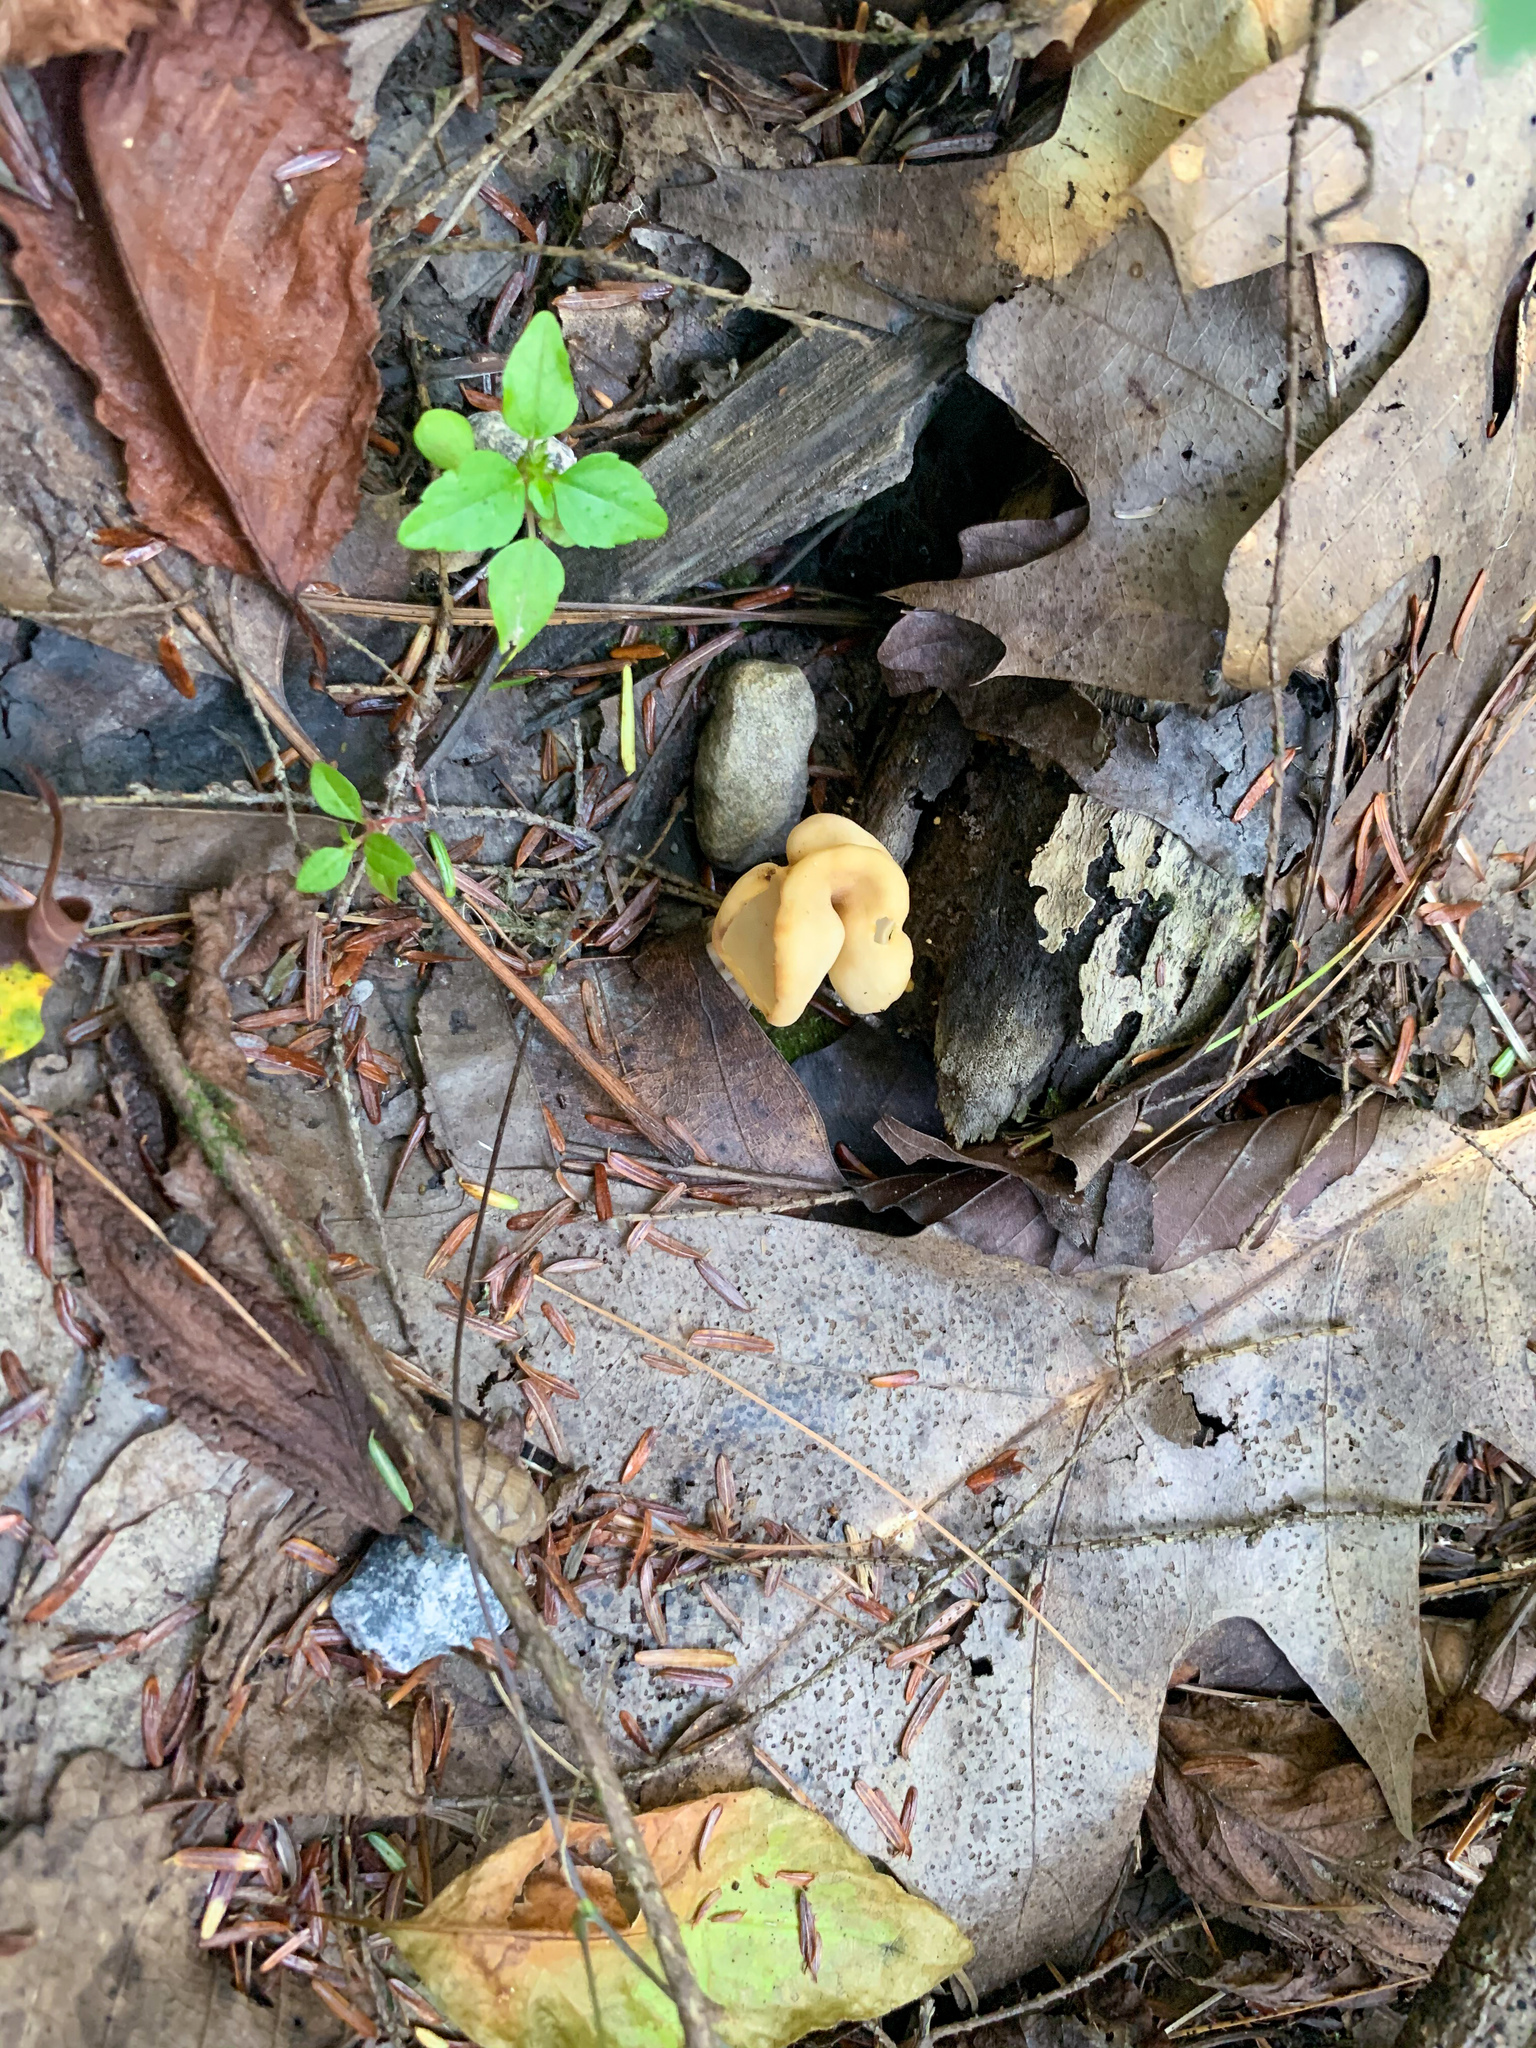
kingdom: Fungi
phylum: Ascomycota
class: Pezizomycetes
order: Pezizales
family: Helvellaceae
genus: Helvella
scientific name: Helvella crispa
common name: White saddle
